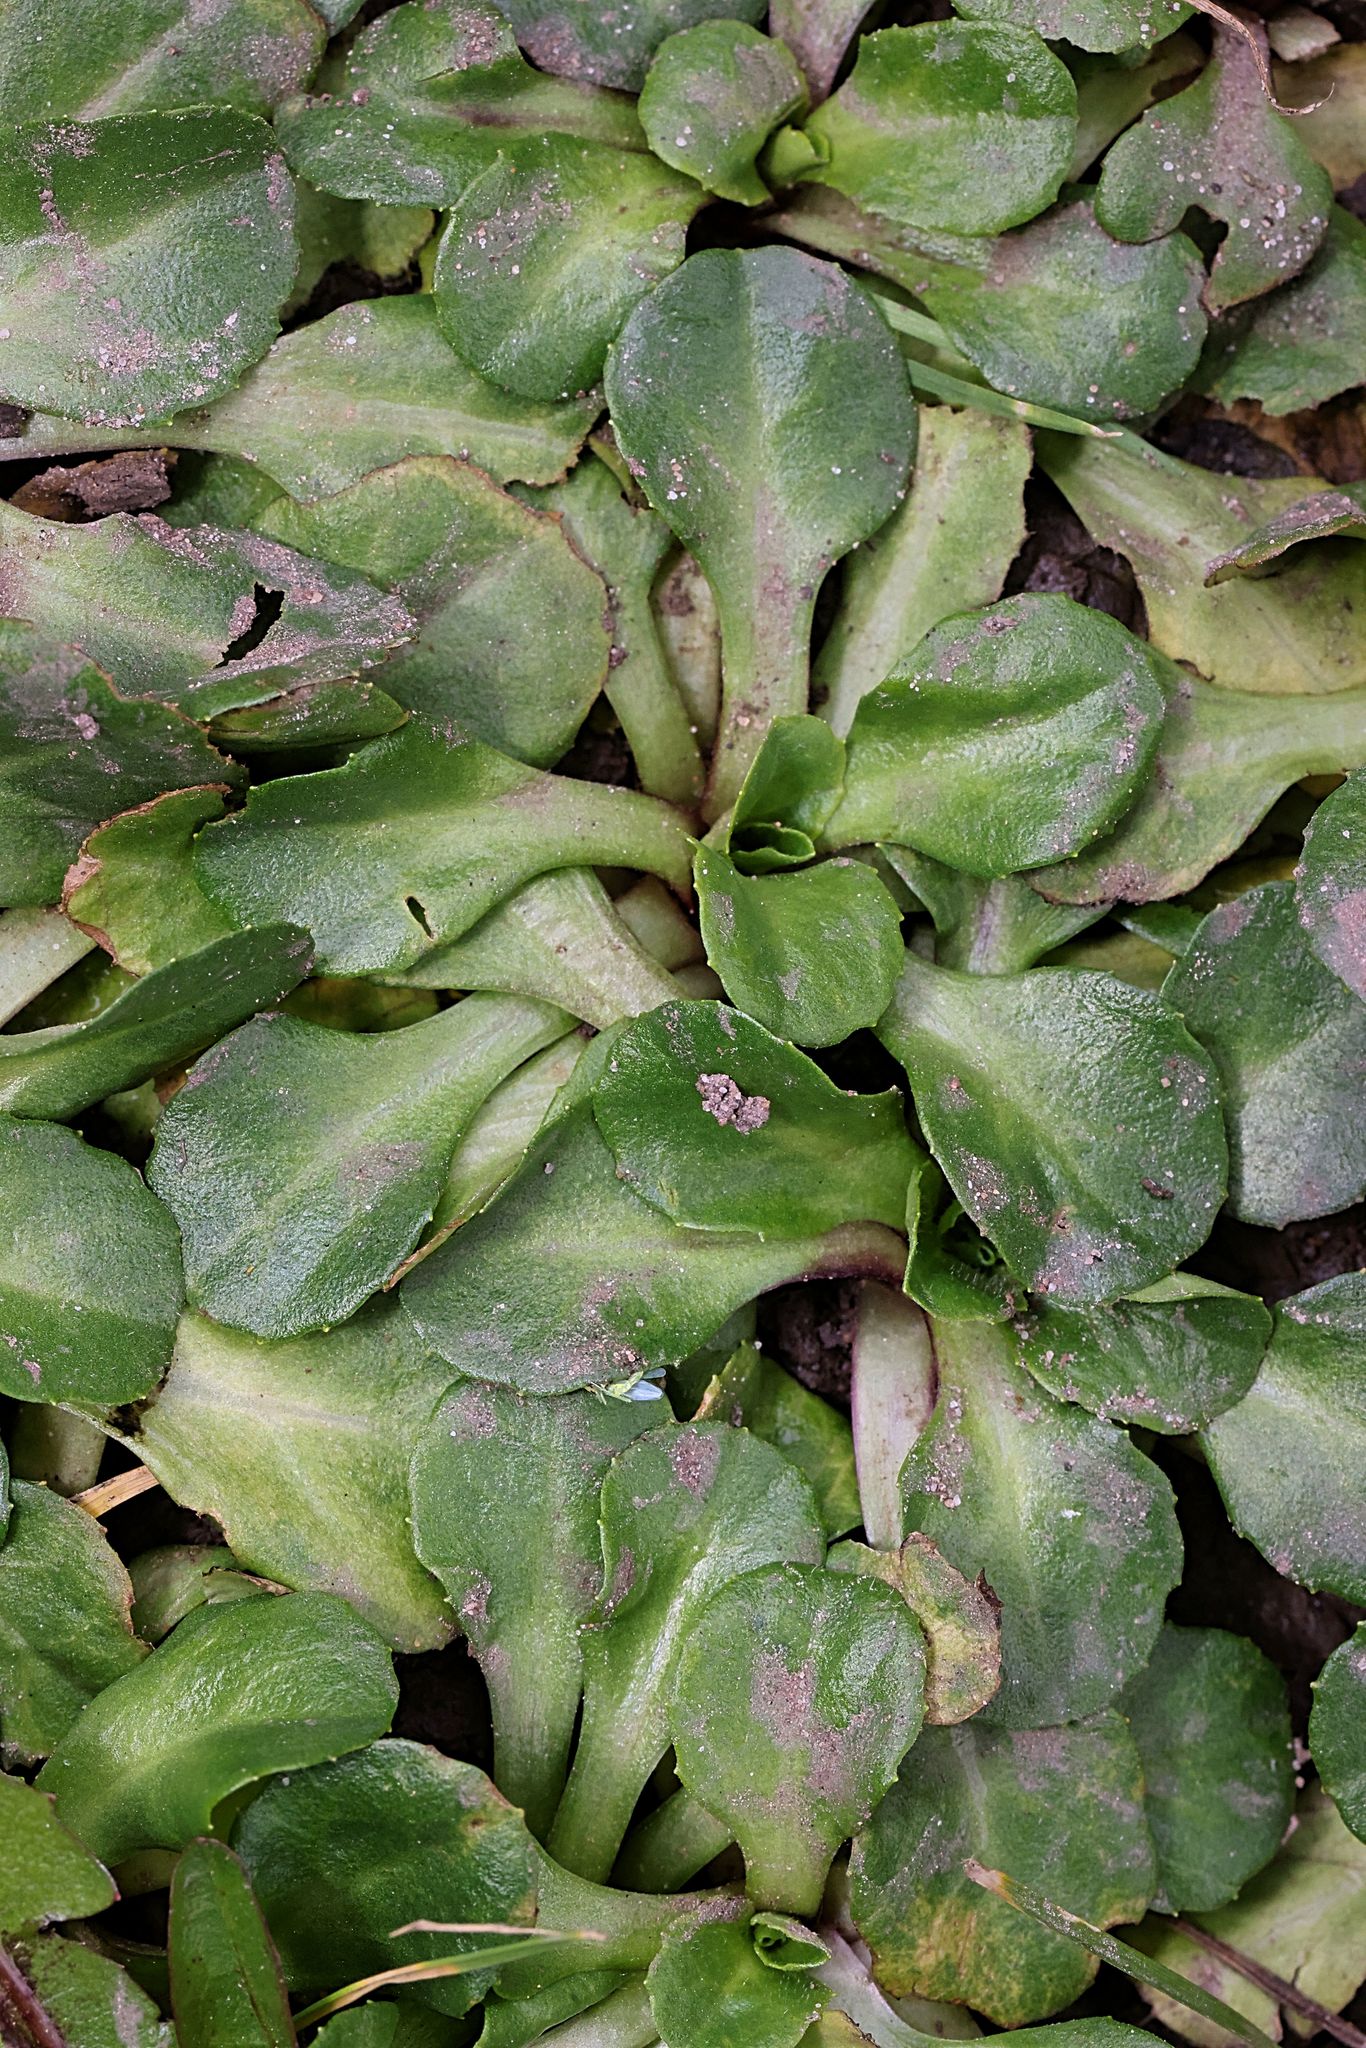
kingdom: Plantae
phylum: Tracheophyta
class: Magnoliopsida
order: Asterales
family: Asteraceae
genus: Bellis
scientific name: Bellis perennis
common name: Lawndaisy
